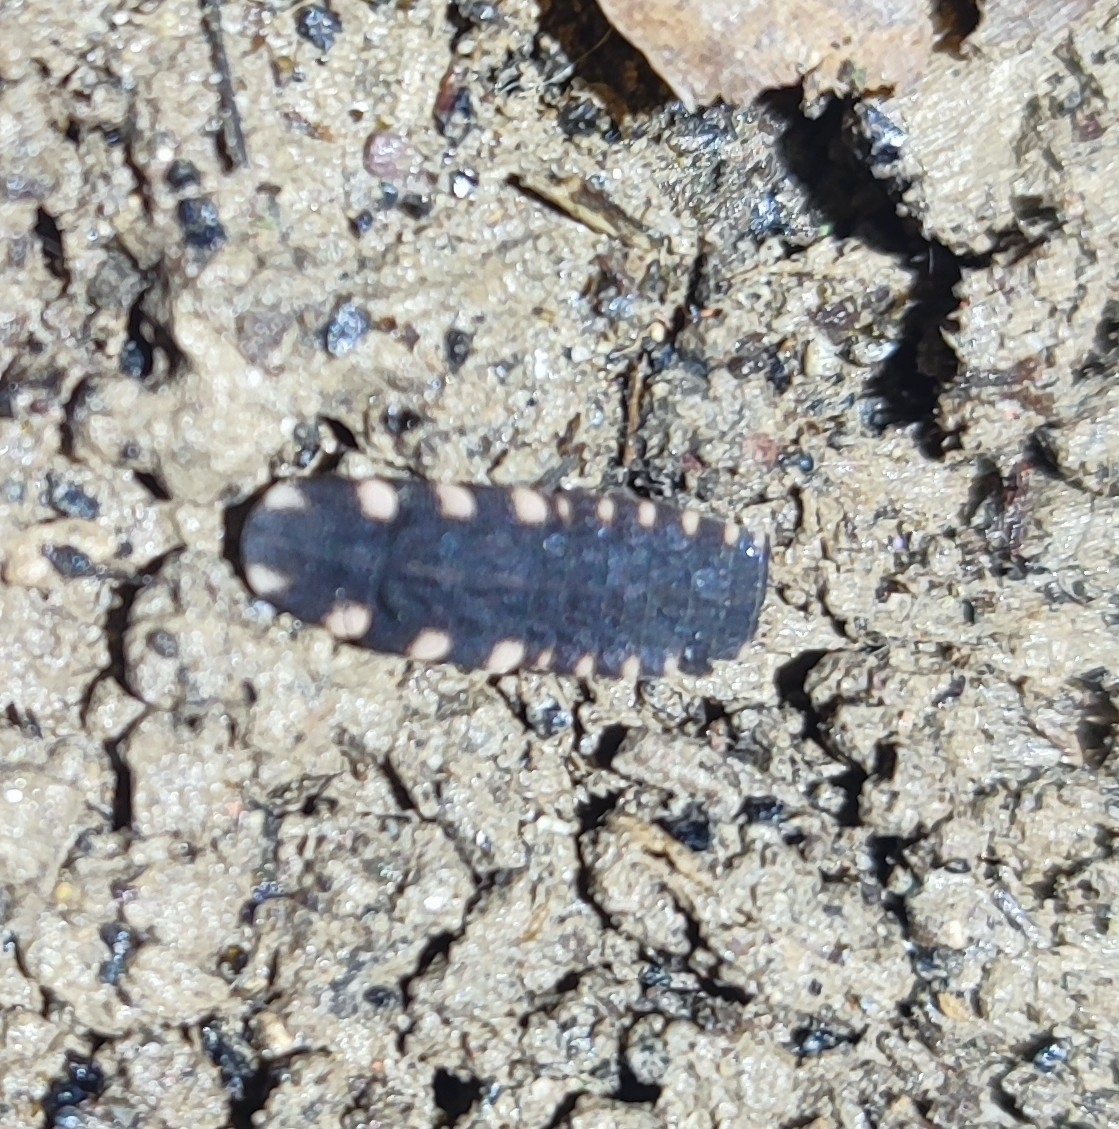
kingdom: Animalia
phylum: Arthropoda
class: Insecta
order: Coleoptera
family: Lampyridae
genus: Lampyris
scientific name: Lampyris raymondi
